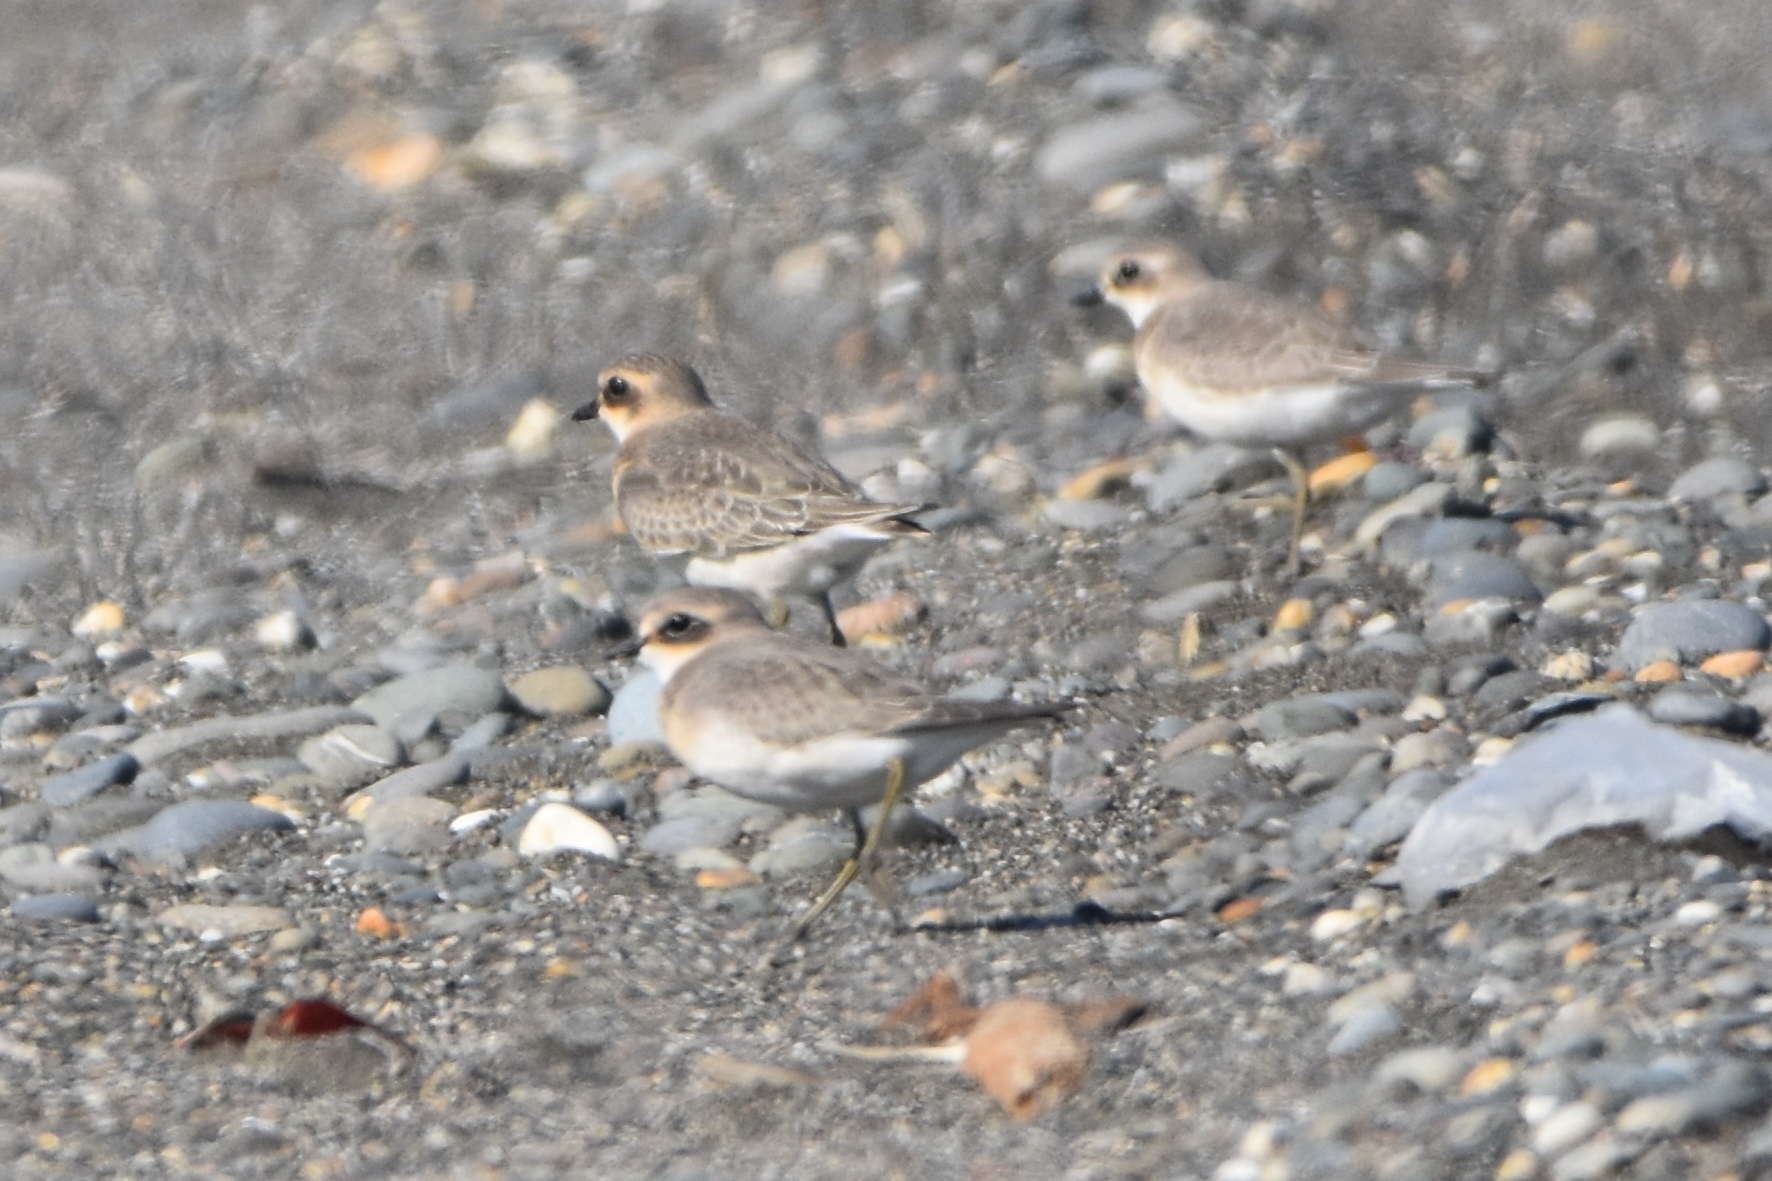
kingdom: Animalia
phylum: Chordata
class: Aves
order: Charadriiformes
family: Charadriidae
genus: Anarhynchus
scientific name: Anarhynchus
